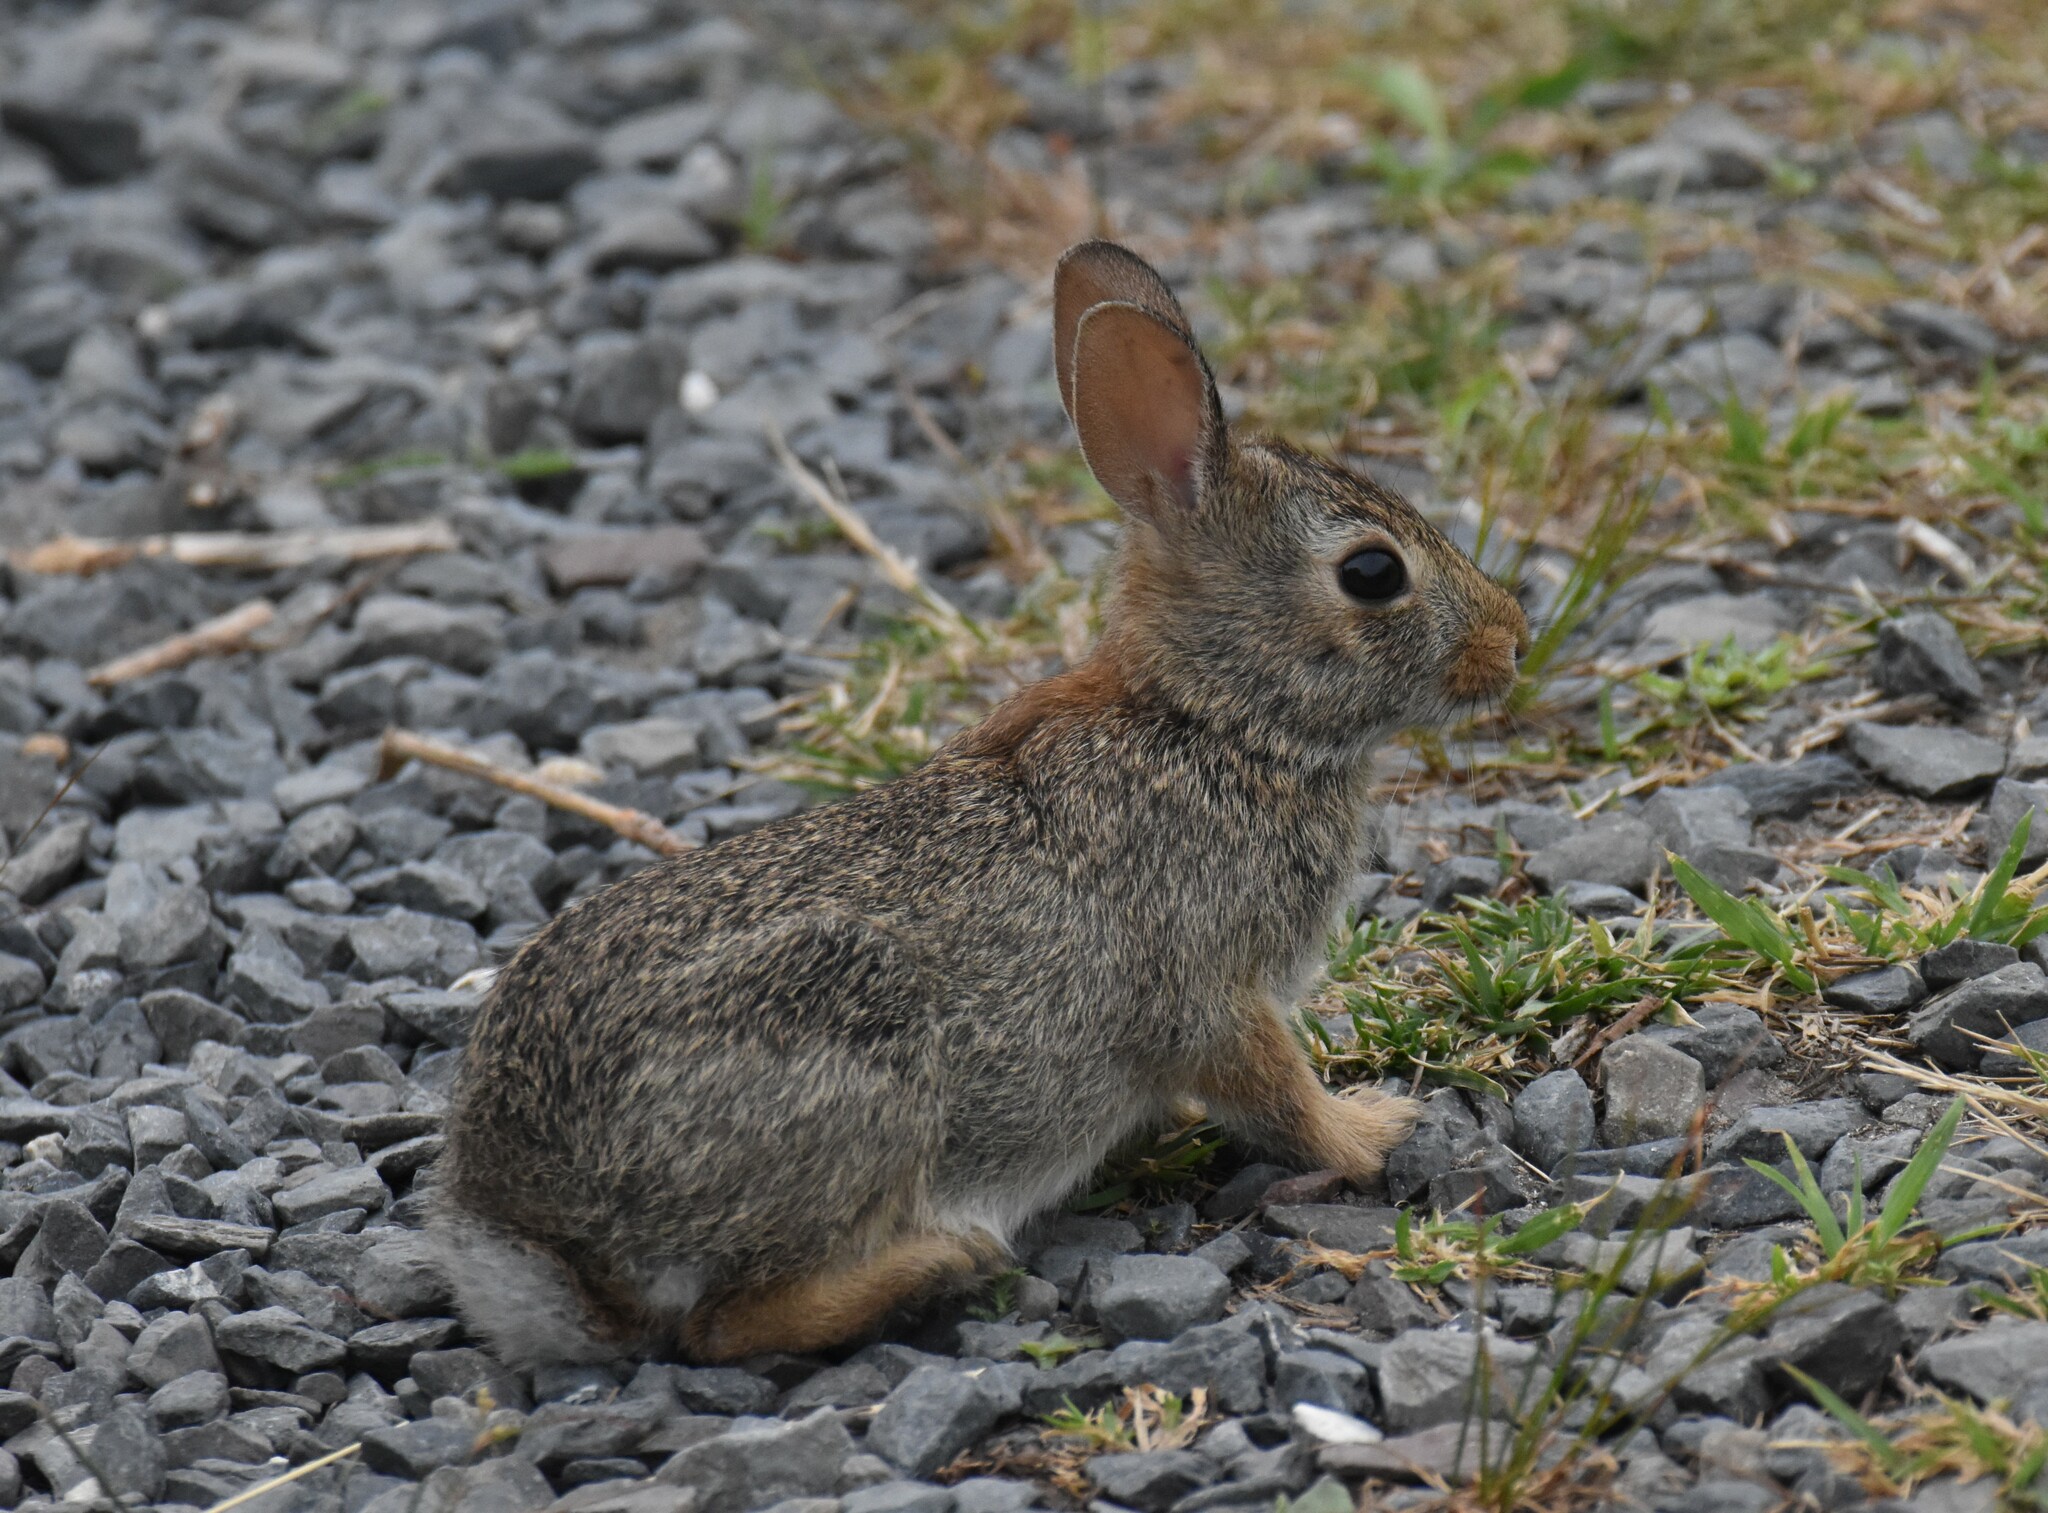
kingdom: Animalia
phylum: Chordata
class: Mammalia
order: Lagomorpha
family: Leporidae
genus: Sylvilagus
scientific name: Sylvilagus floridanus
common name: Eastern cottontail
